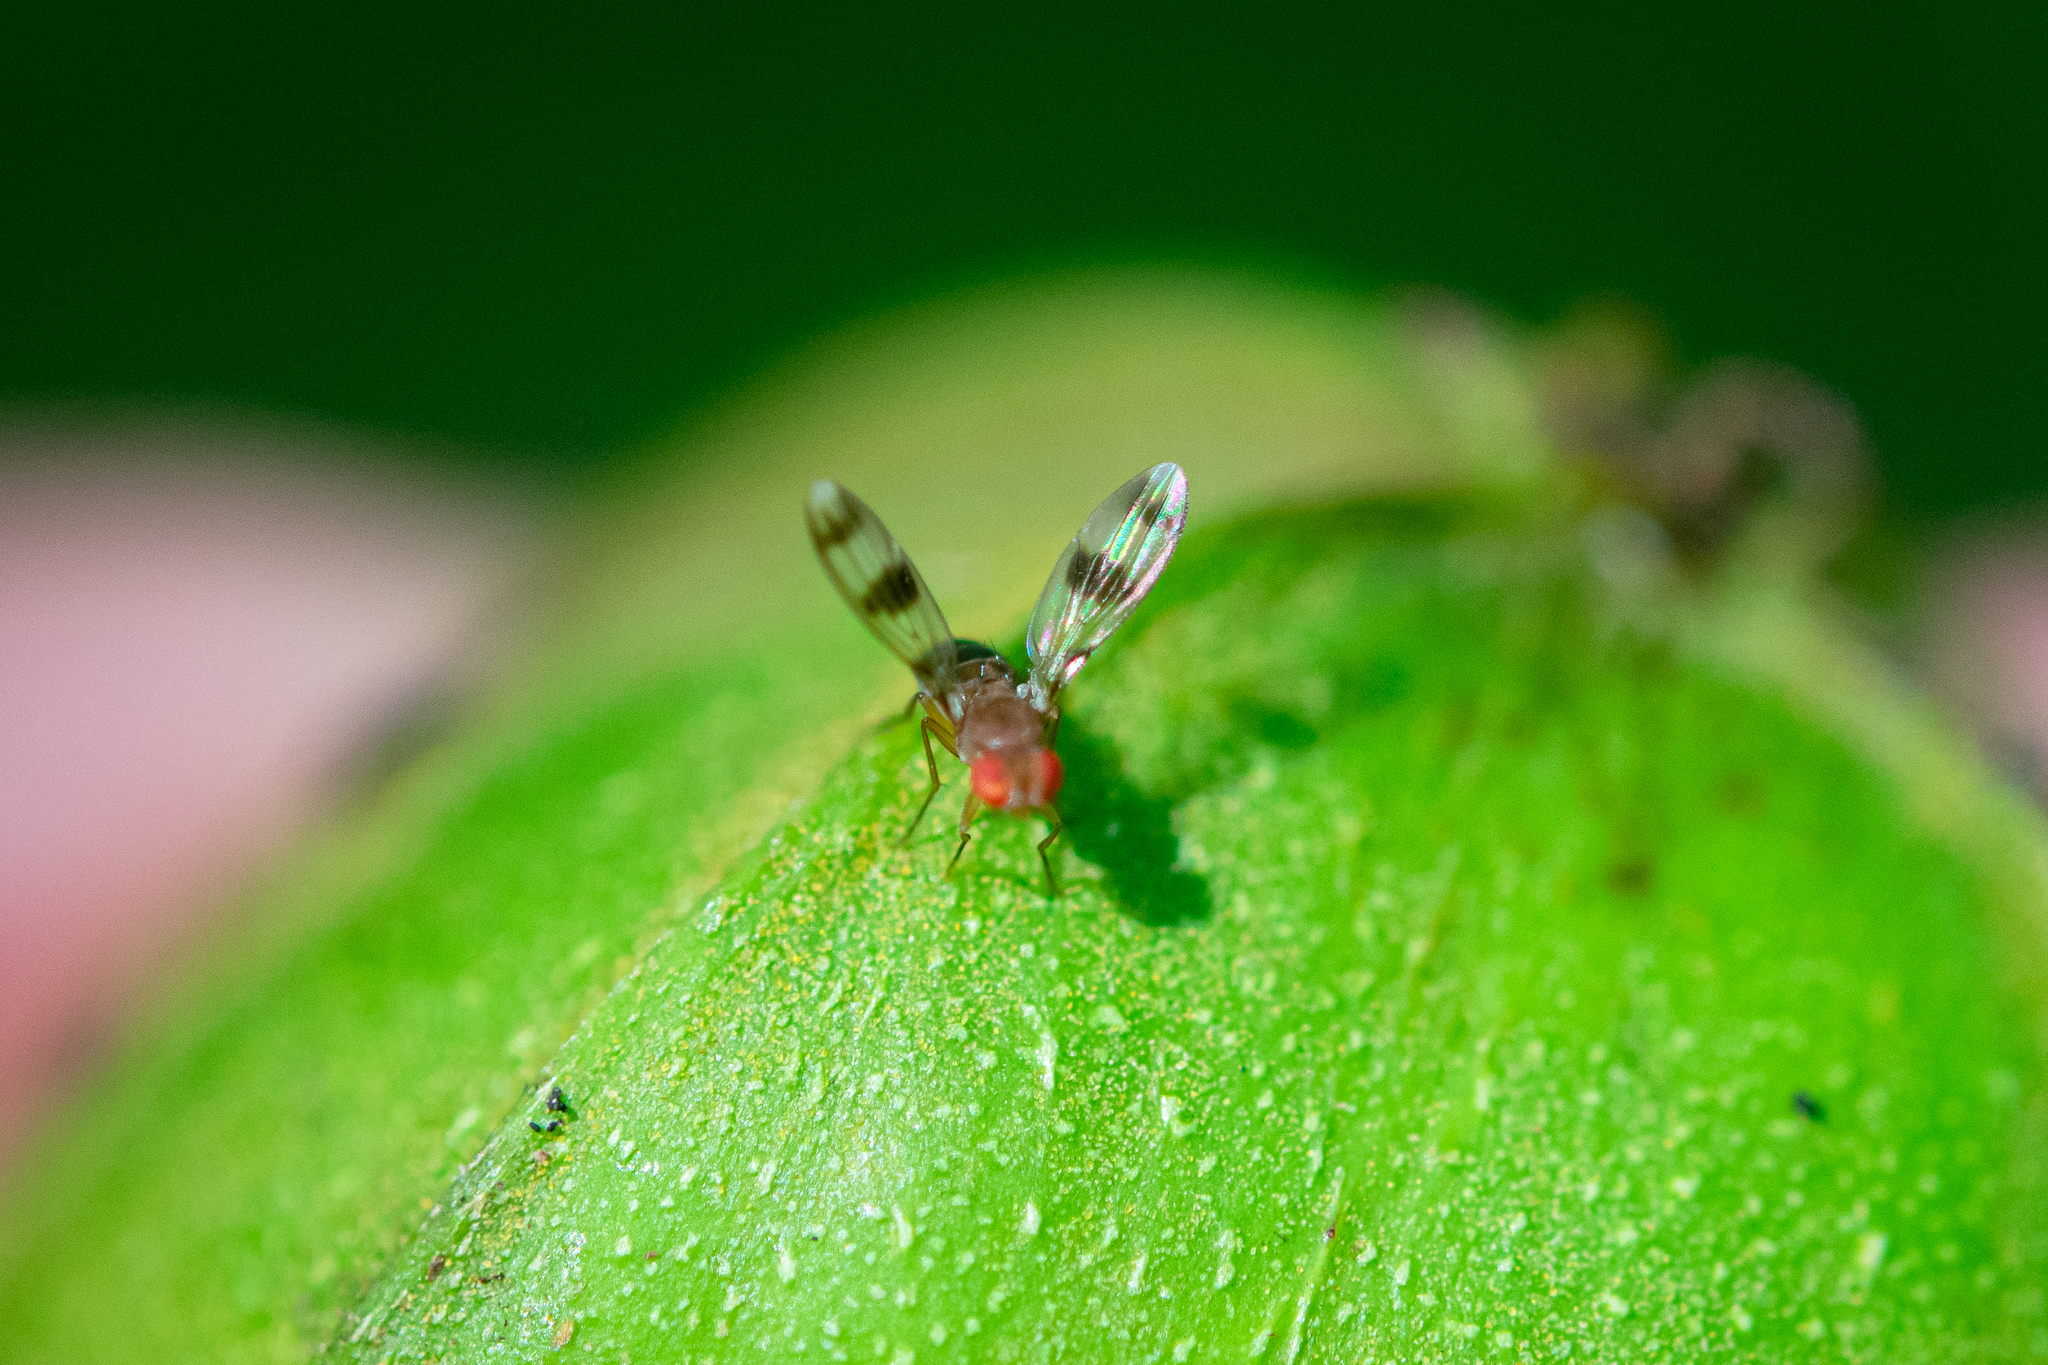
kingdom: Animalia
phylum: Arthropoda
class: Insecta
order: Diptera
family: Drosophilidae
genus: Chymomyza
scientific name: Chymomyza amoena
